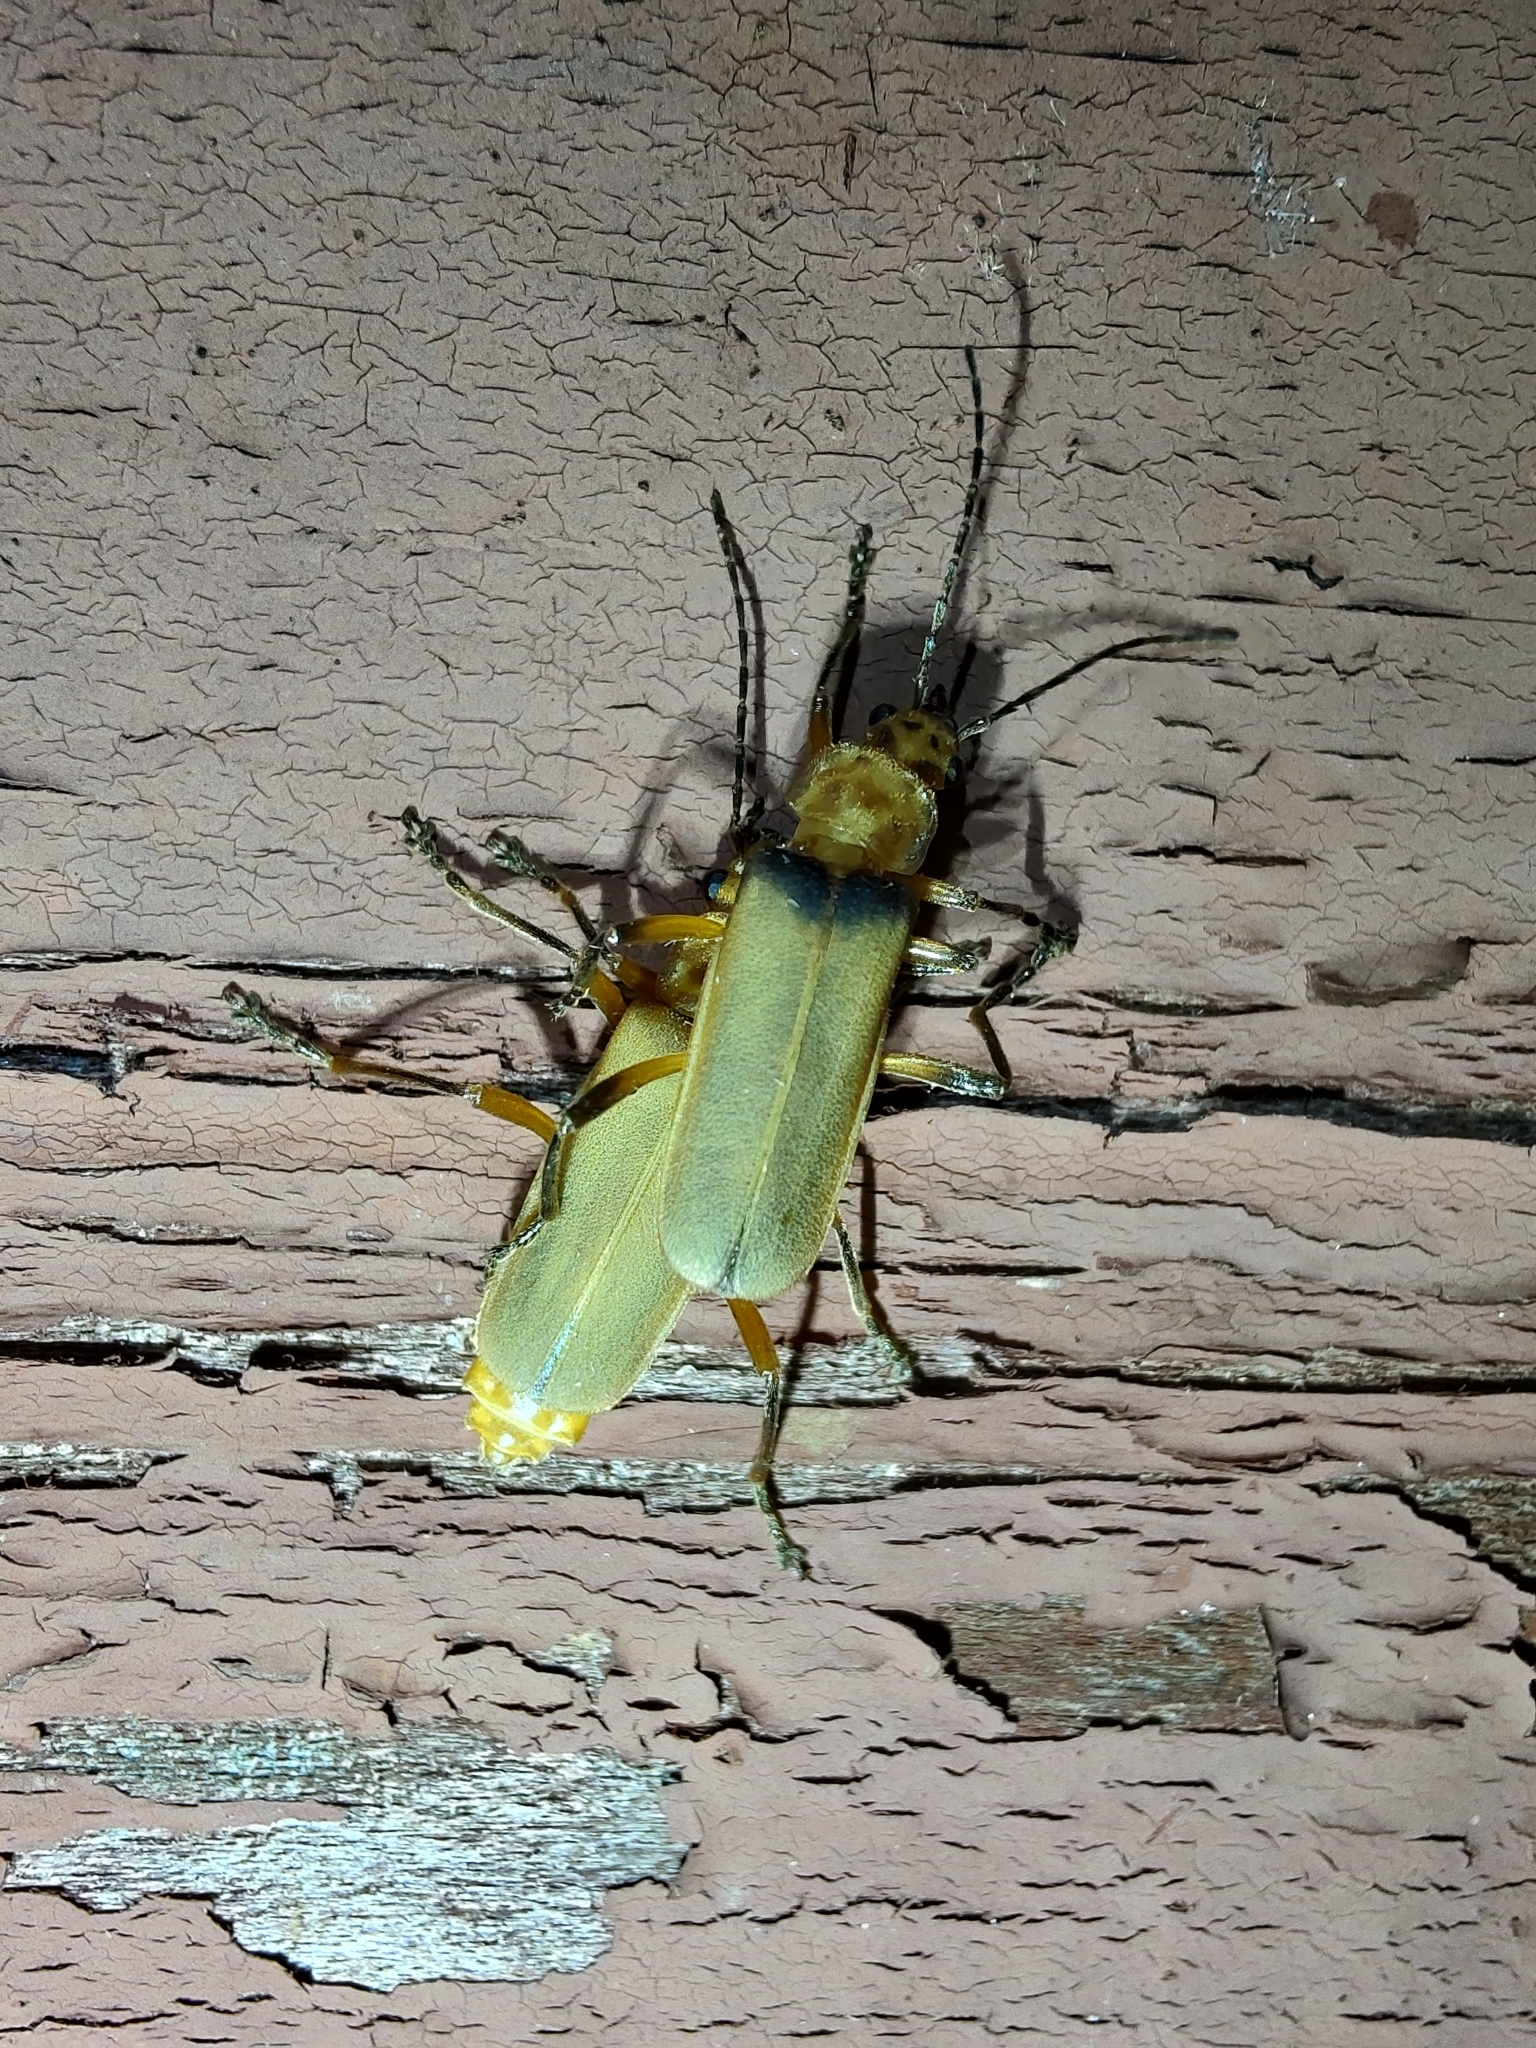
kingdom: Animalia
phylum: Arthropoda
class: Insecta
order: Coleoptera
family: Cantharidae
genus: Chauliognathus
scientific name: Chauliognathus
